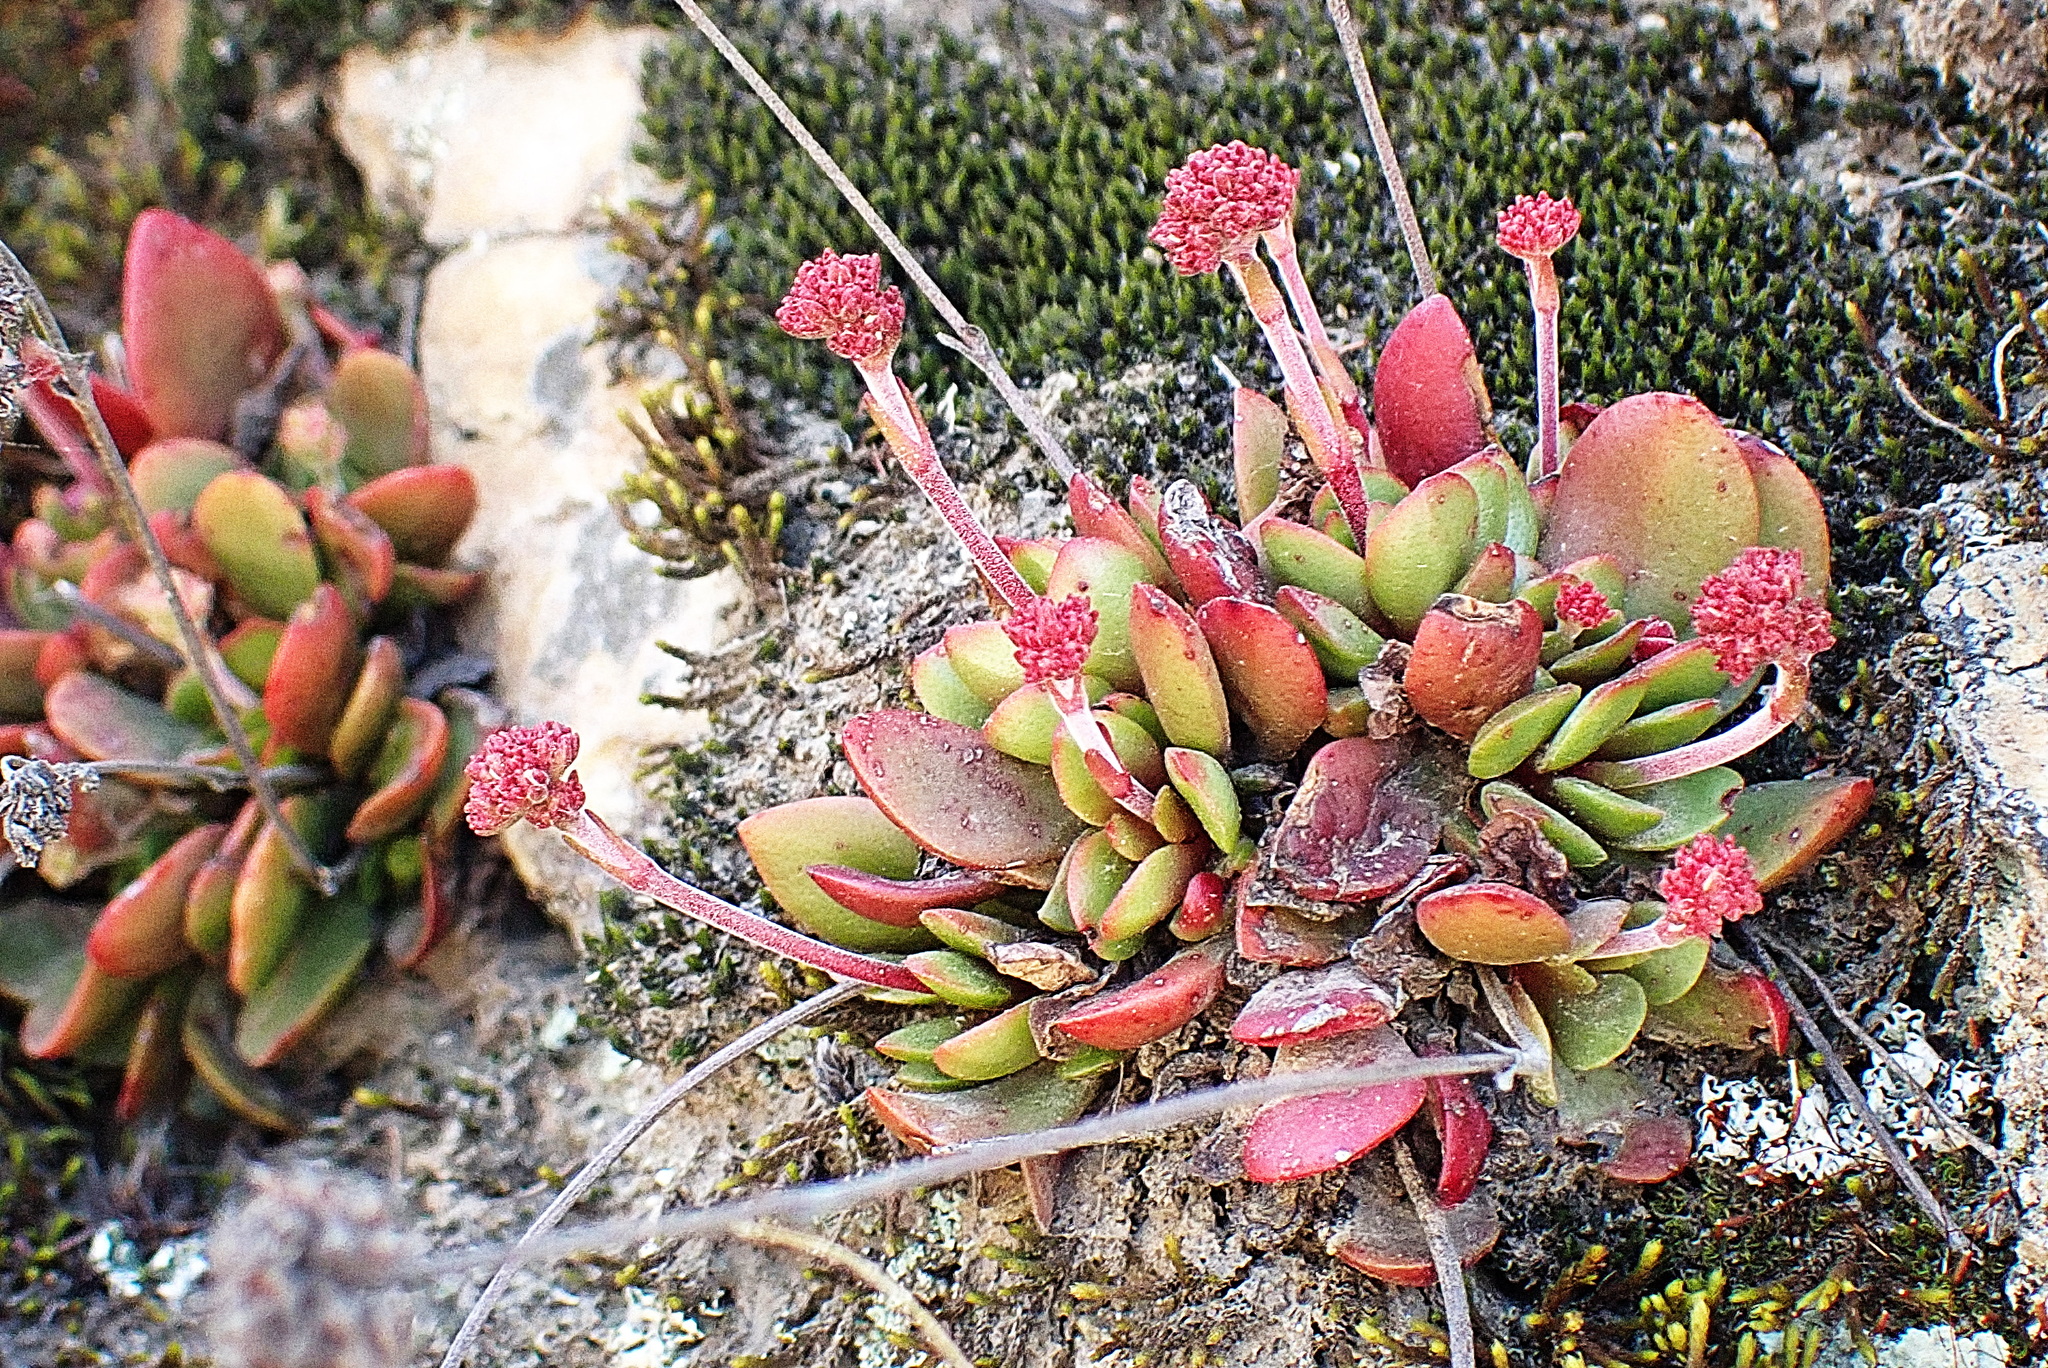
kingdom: Plantae
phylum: Tracheophyta
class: Magnoliopsida
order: Saxifragales
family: Crassulaceae
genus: Crassula
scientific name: Crassula nudicaulis
